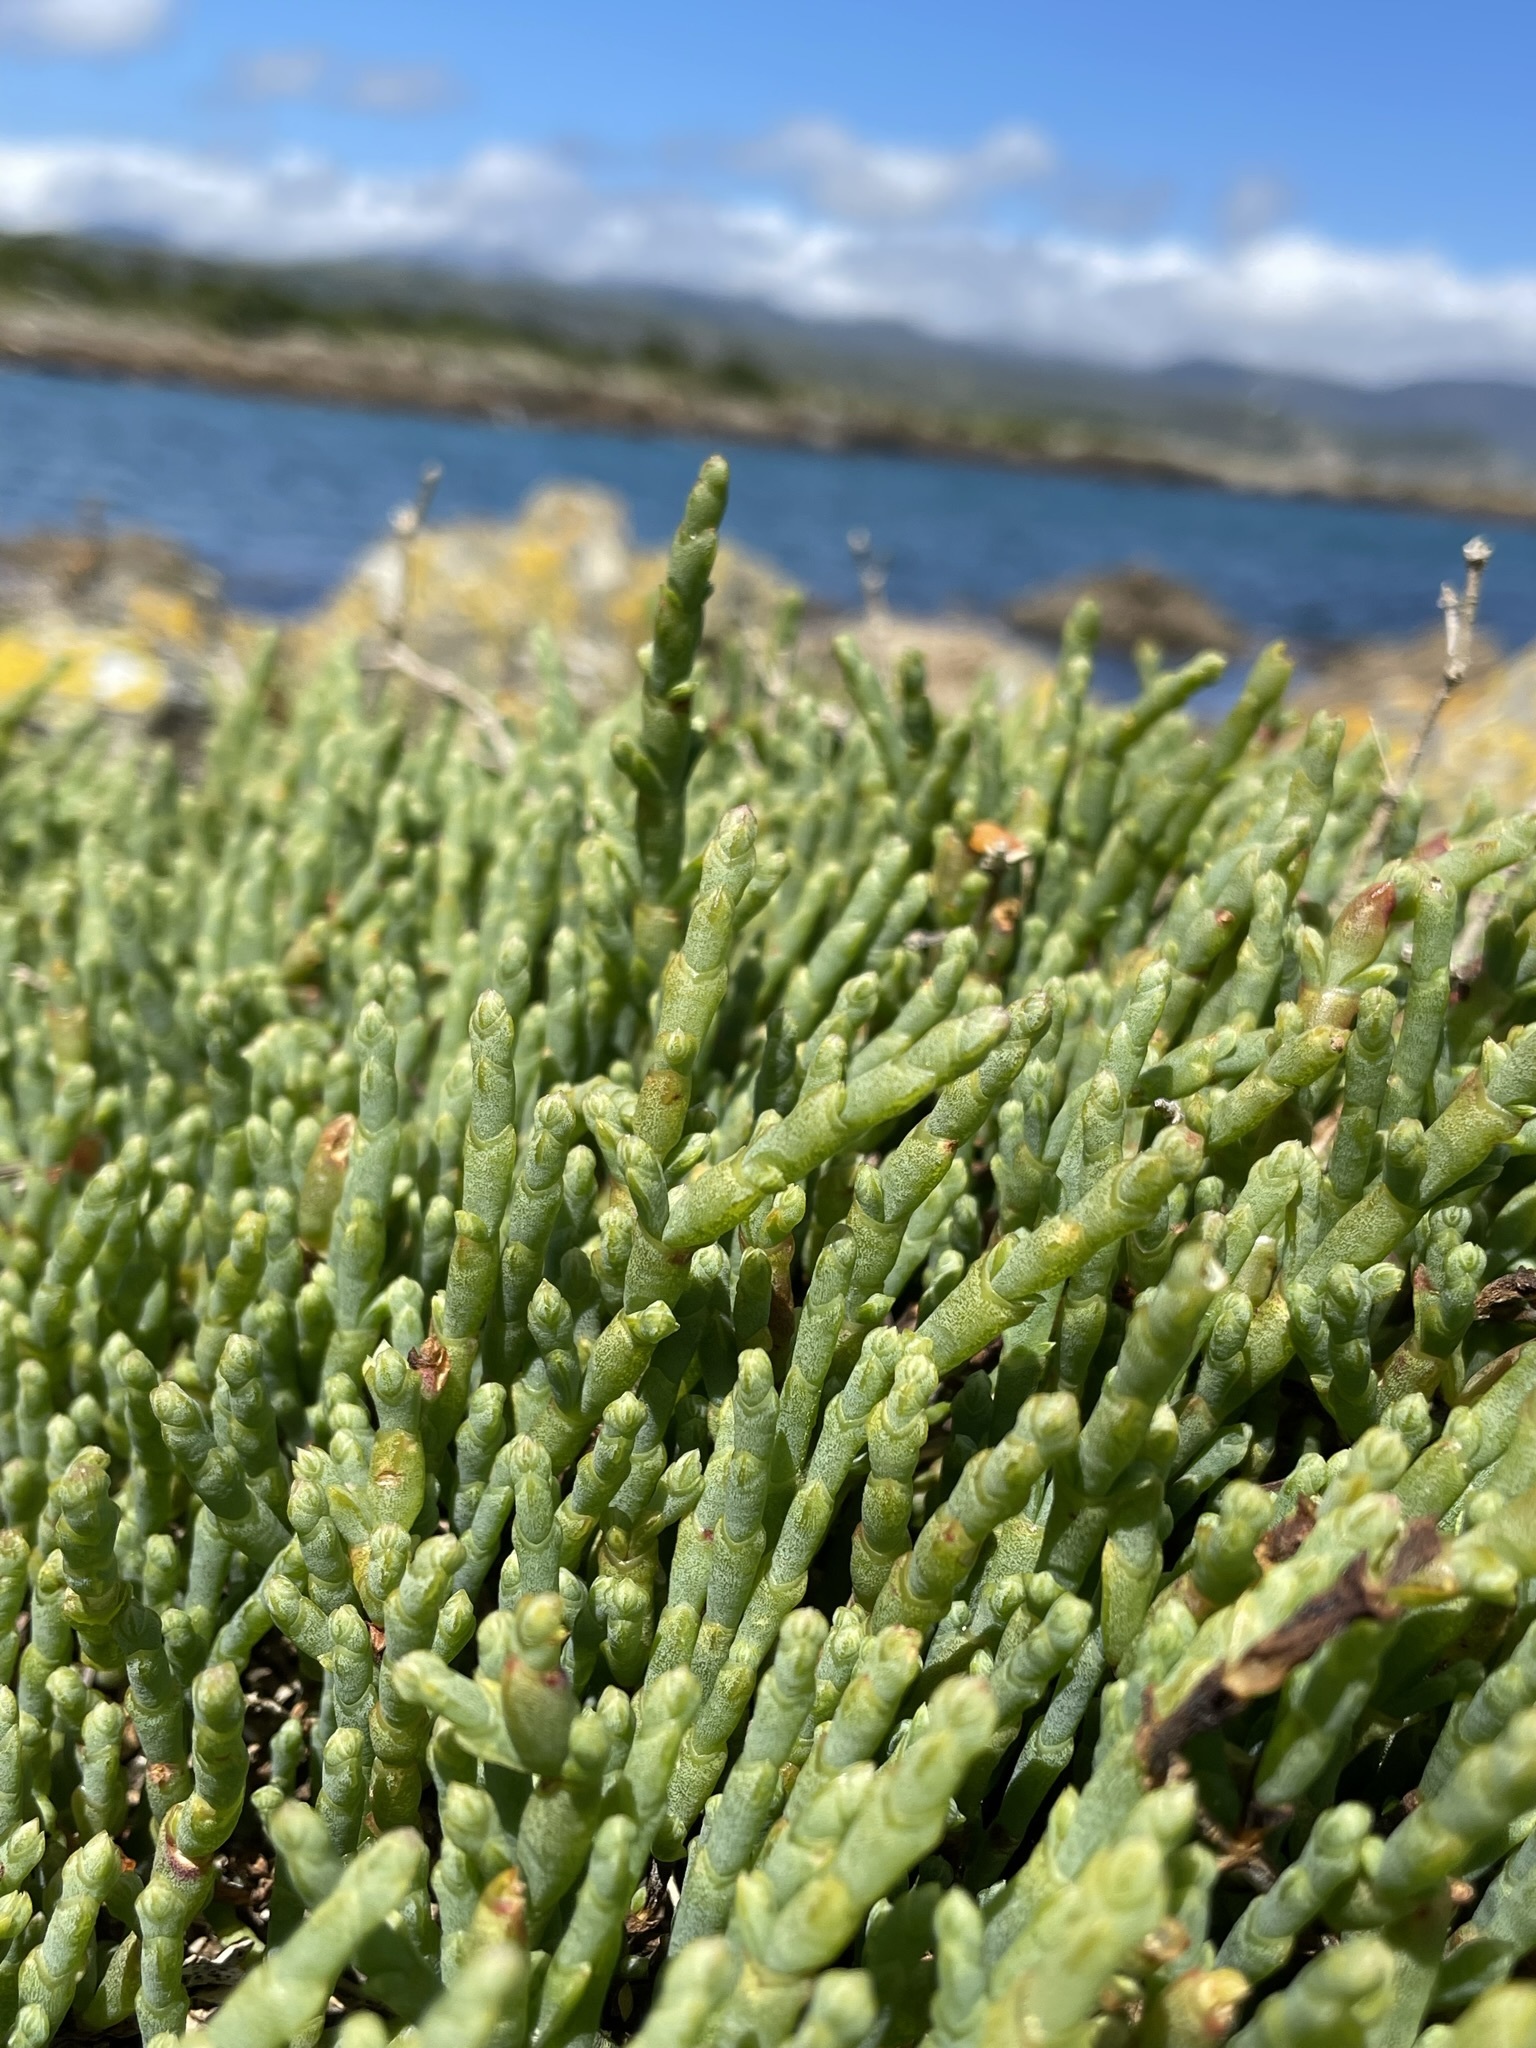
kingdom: Plantae
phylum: Tracheophyta
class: Magnoliopsida
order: Caryophyllales
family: Amaranthaceae
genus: Salicornia
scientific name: Salicornia quinqueflora
